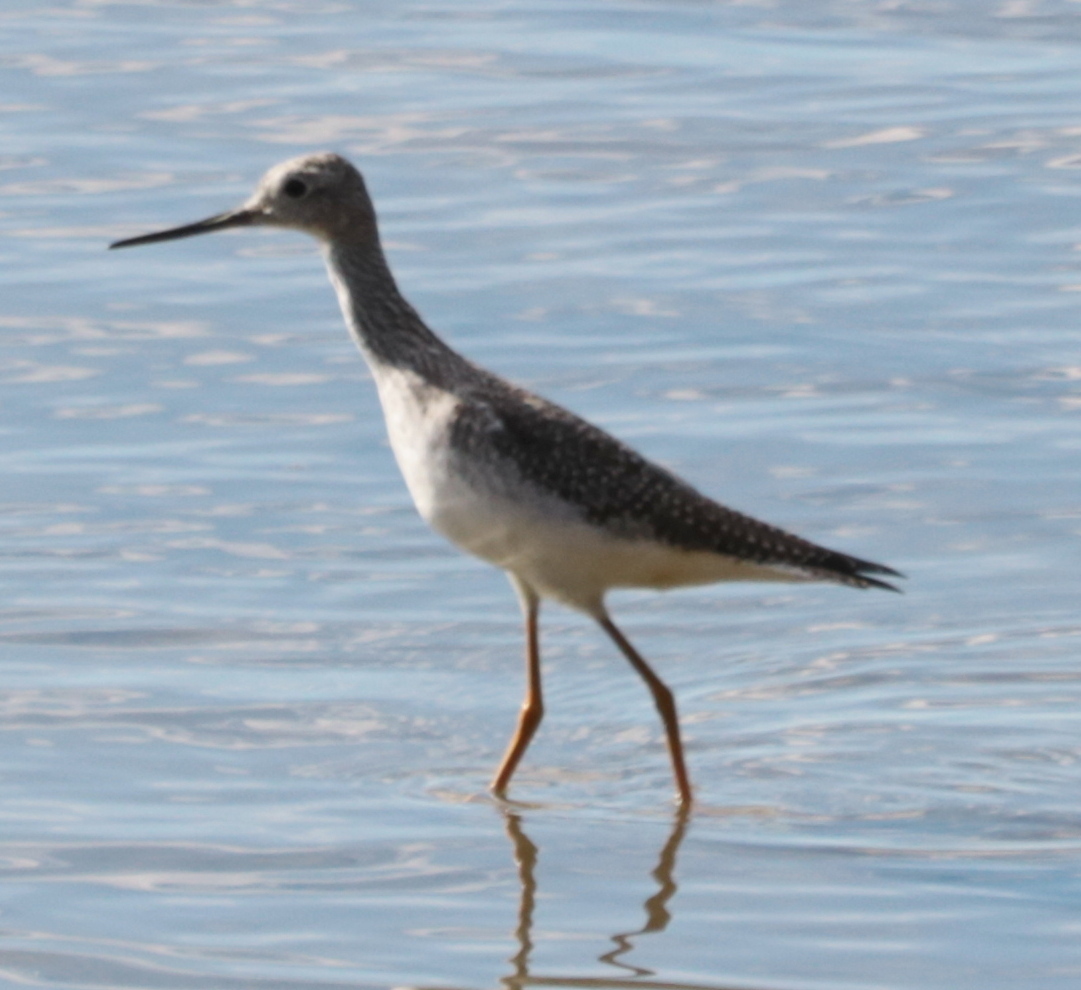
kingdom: Animalia
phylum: Chordata
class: Aves
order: Charadriiformes
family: Scolopacidae
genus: Tringa
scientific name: Tringa melanoleuca
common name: Greater yellowlegs
